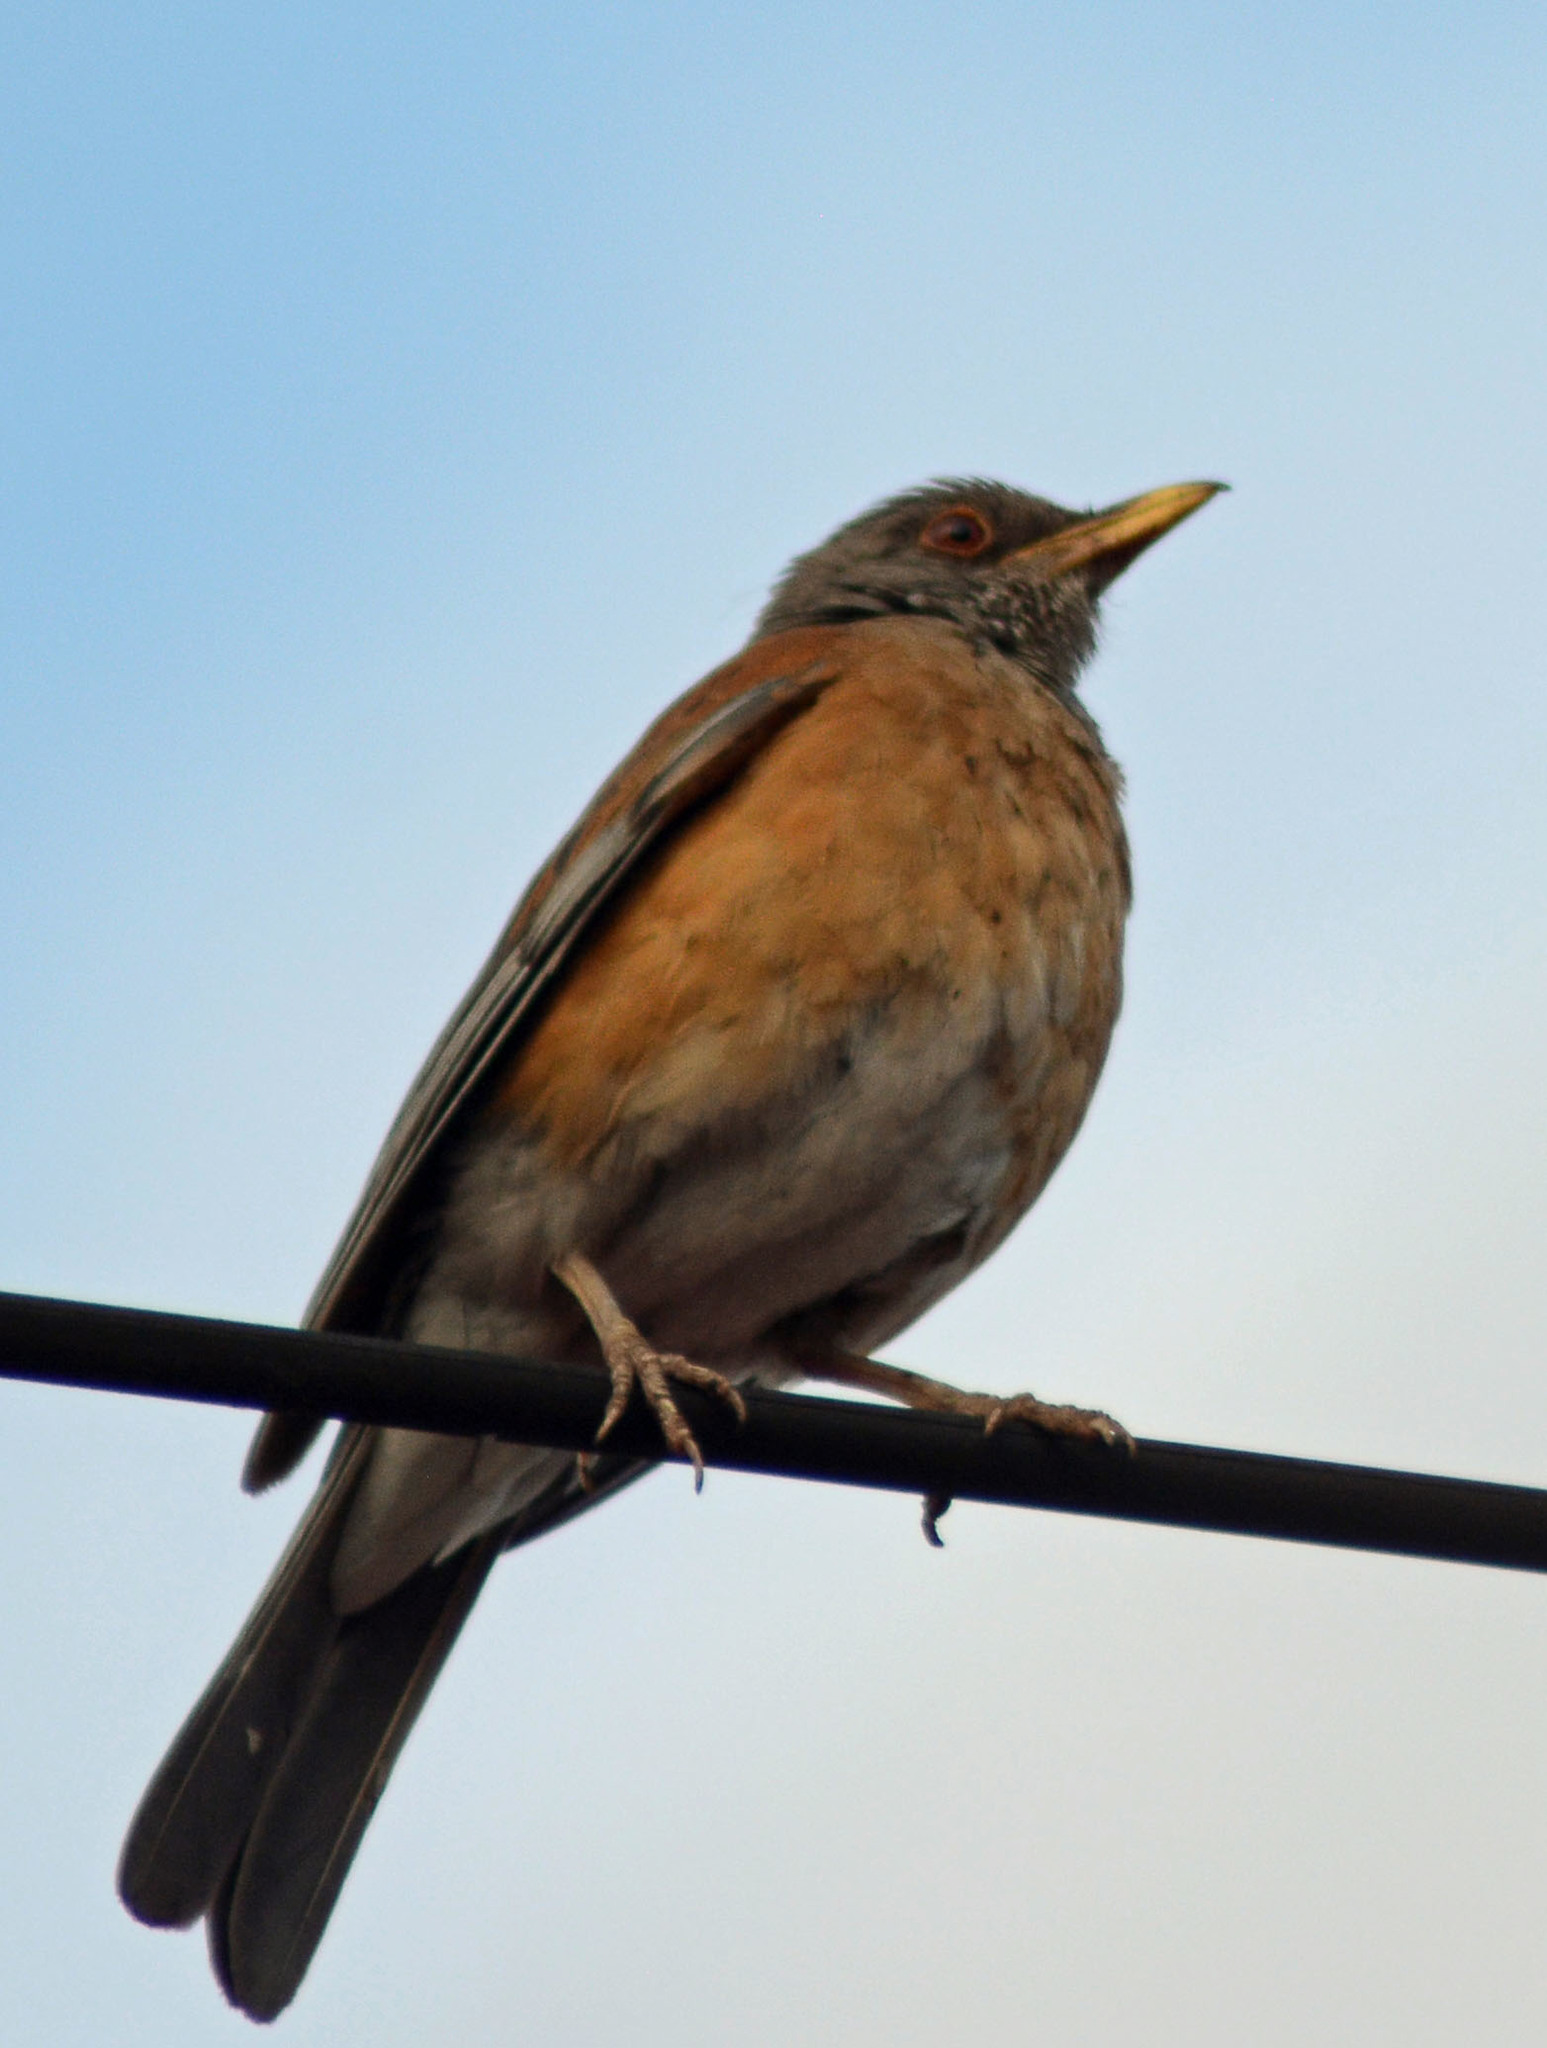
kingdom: Animalia
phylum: Chordata
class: Aves
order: Passeriformes
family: Turdidae
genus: Turdus
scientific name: Turdus rufopalliatus
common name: Rufous-backed robin
